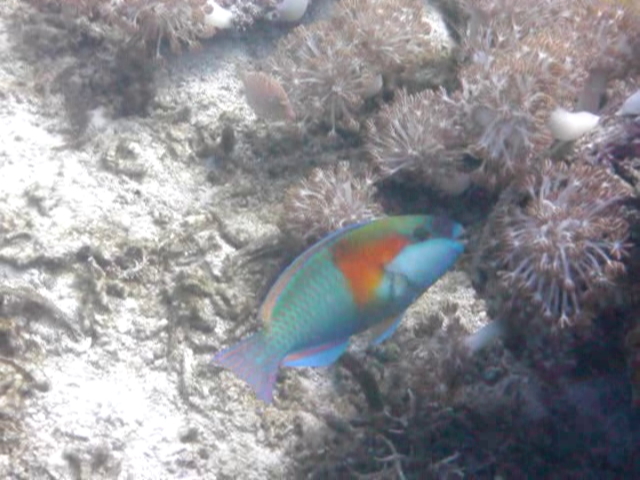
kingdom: Animalia
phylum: Chordata
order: Perciformes
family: Scaridae
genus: Chlorurus
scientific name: Chlorurus bowersi
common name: Bower's parrotfish
